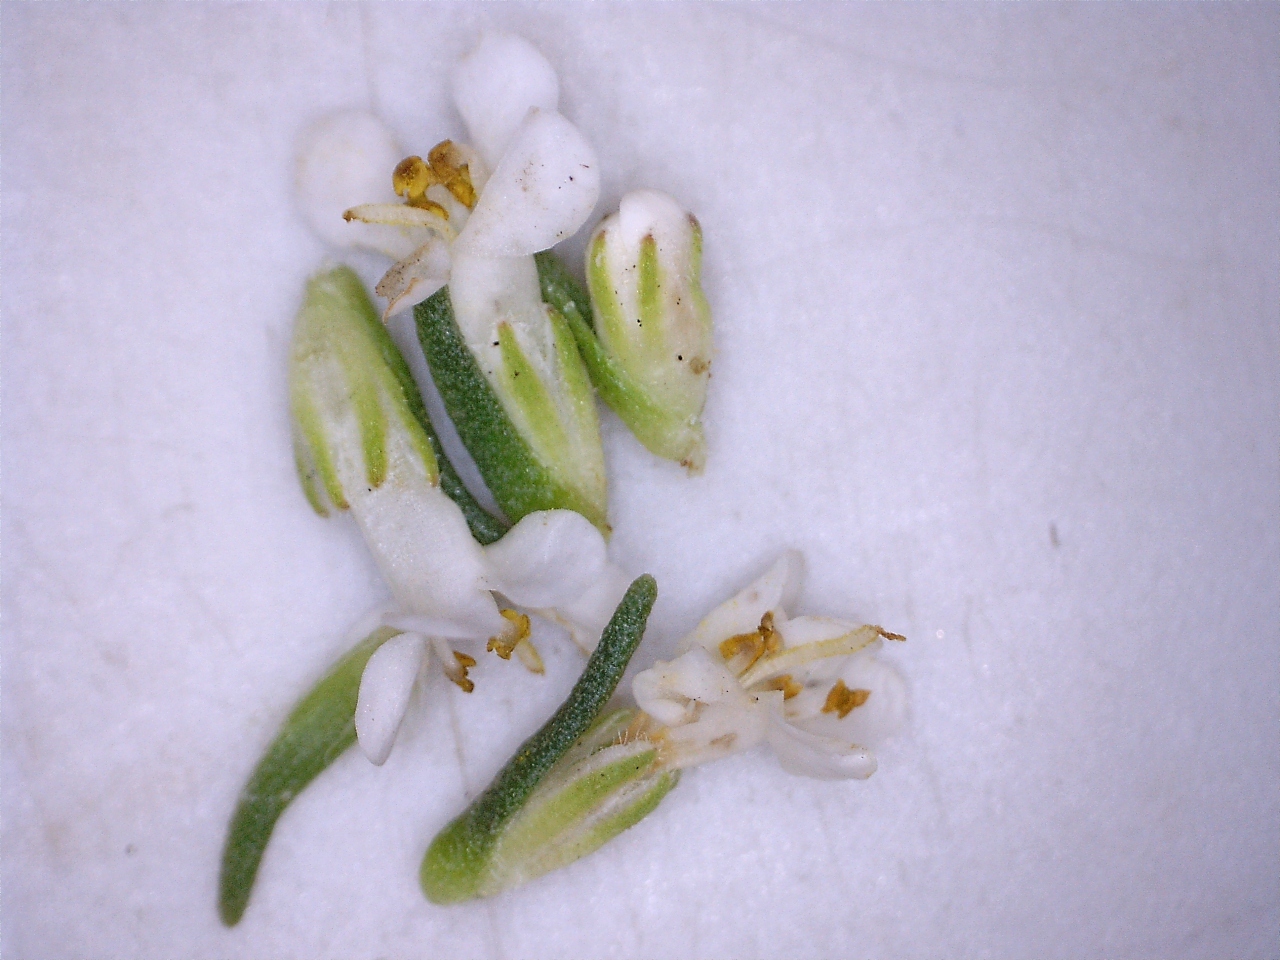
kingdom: Plantae
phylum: Tracheophyta
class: Magnoliopsida
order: Lamiales
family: Scrophulariaceae
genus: Selago
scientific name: Selago diffusa
